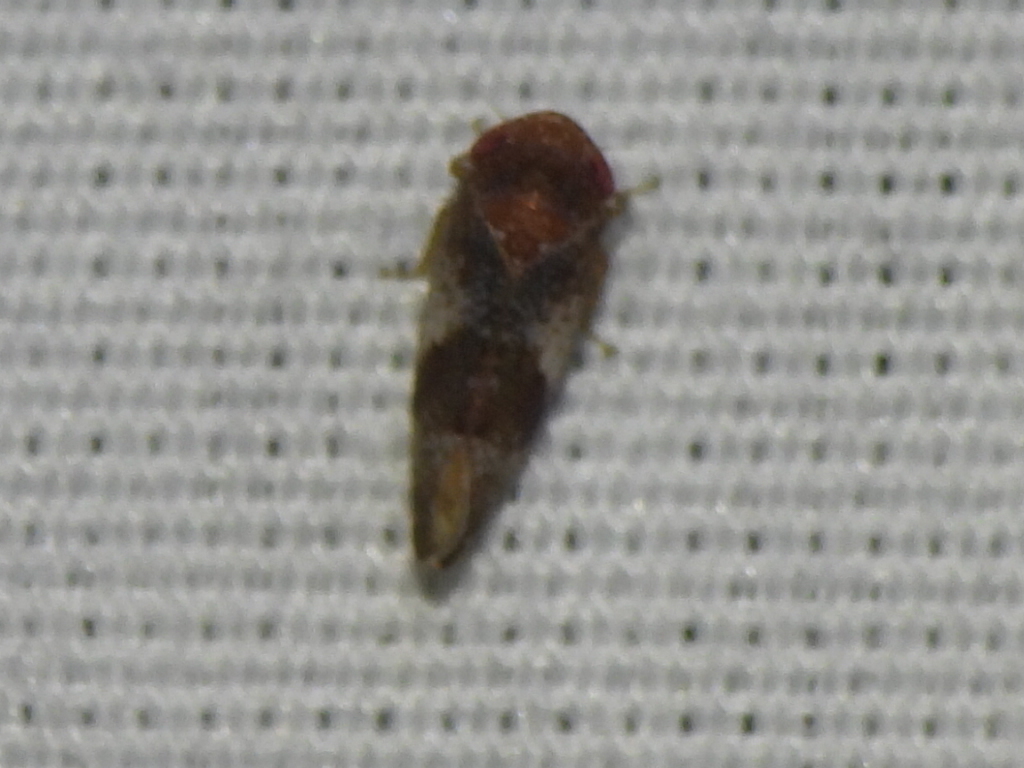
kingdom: Animalia
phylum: Arthropoda
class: Insecta
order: Hemiptera
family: Cicadellidae
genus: Norvellina
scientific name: Norvellina helenae
